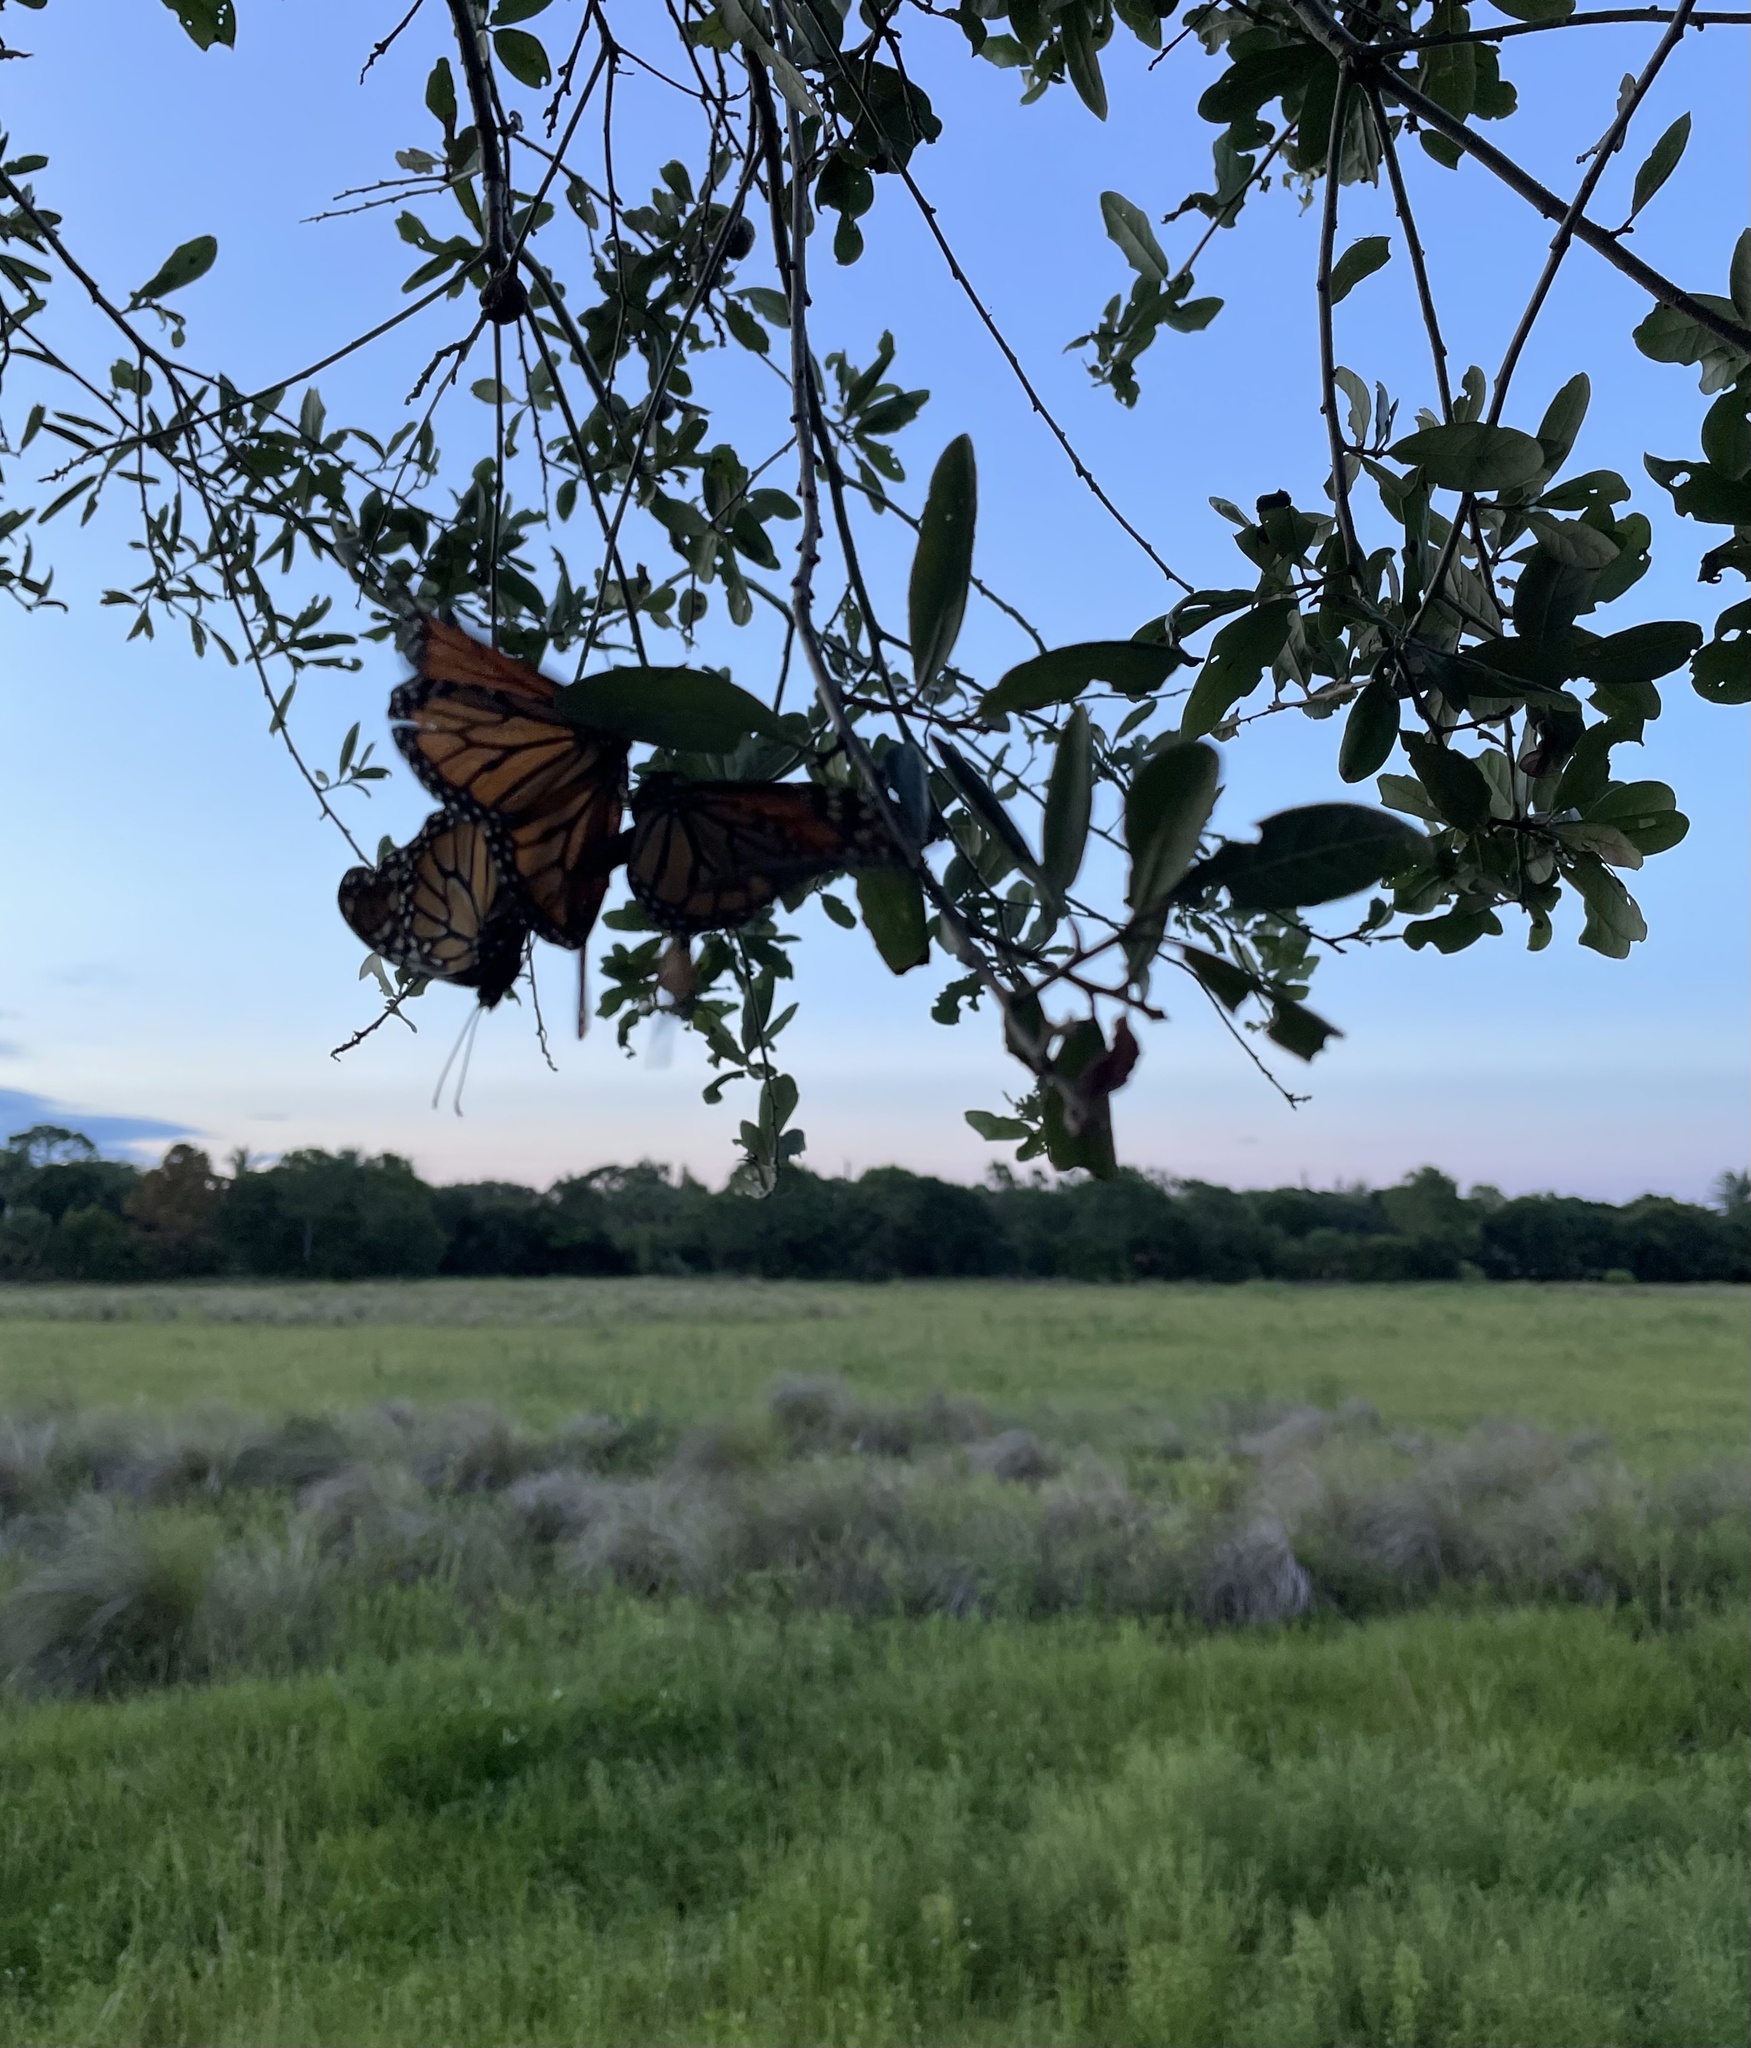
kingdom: Animalia
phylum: Arthropoda
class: Insecta
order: Lepidoptera
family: Nymphalidae
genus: Danaus
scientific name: Danaus plexippus
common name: Monarch
